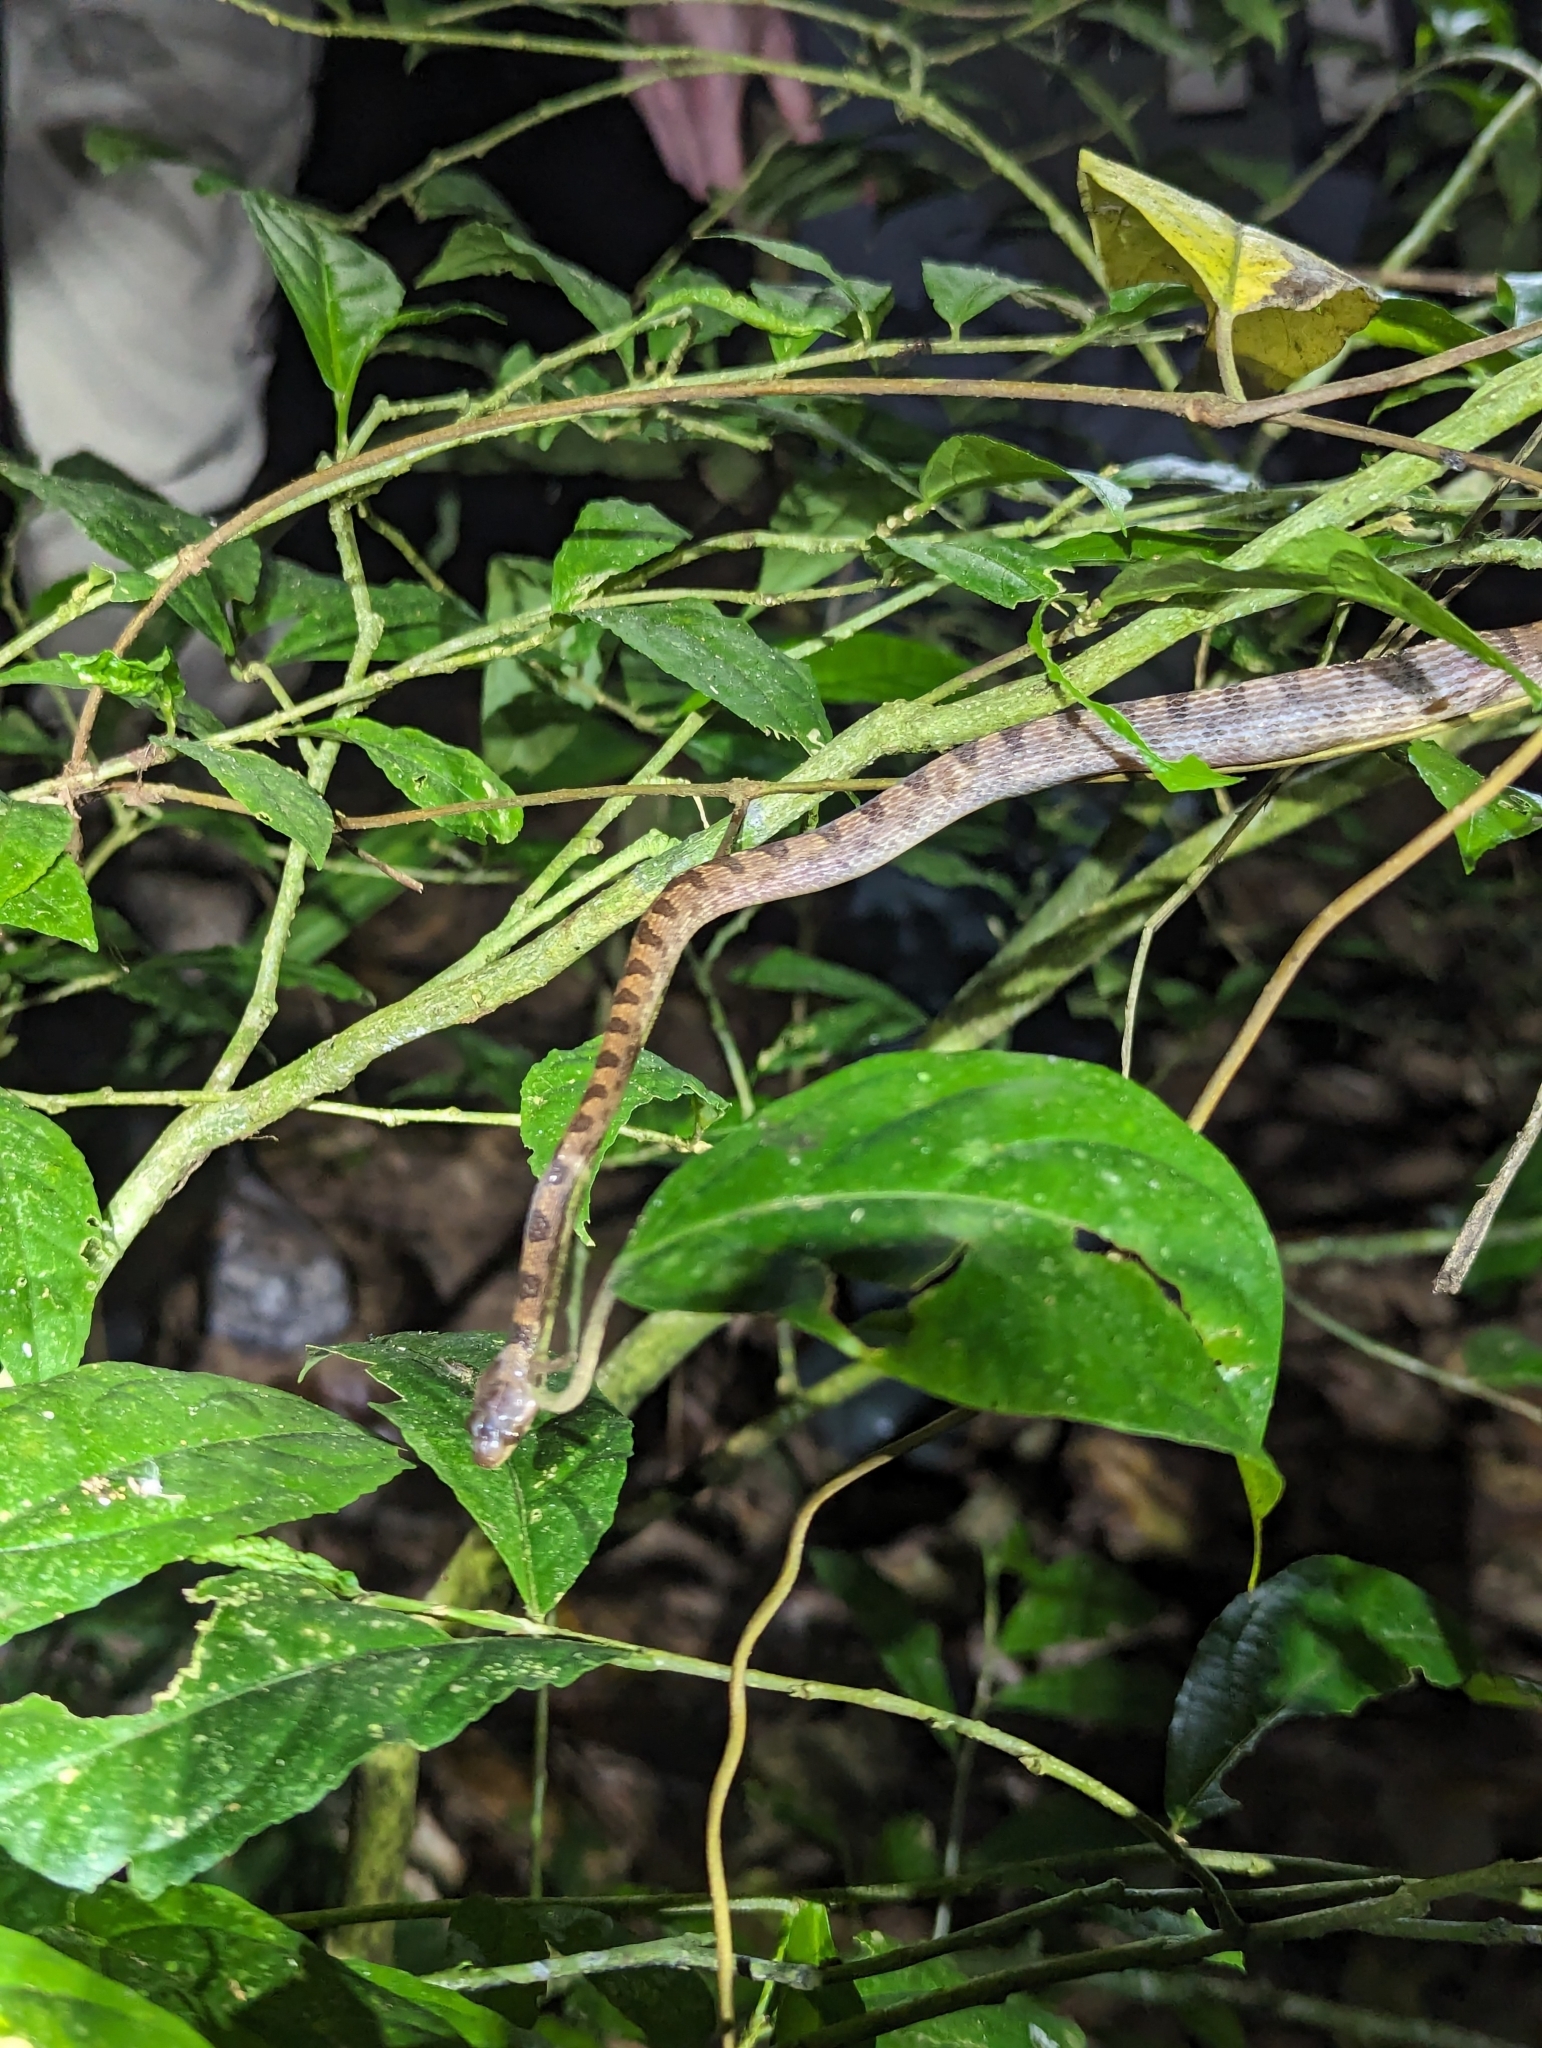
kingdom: Animalia
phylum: Chordata
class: Squamata
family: Colubridae
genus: Leptodeira
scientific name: Leptodeira ornata
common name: Northern cat-eyed snake
